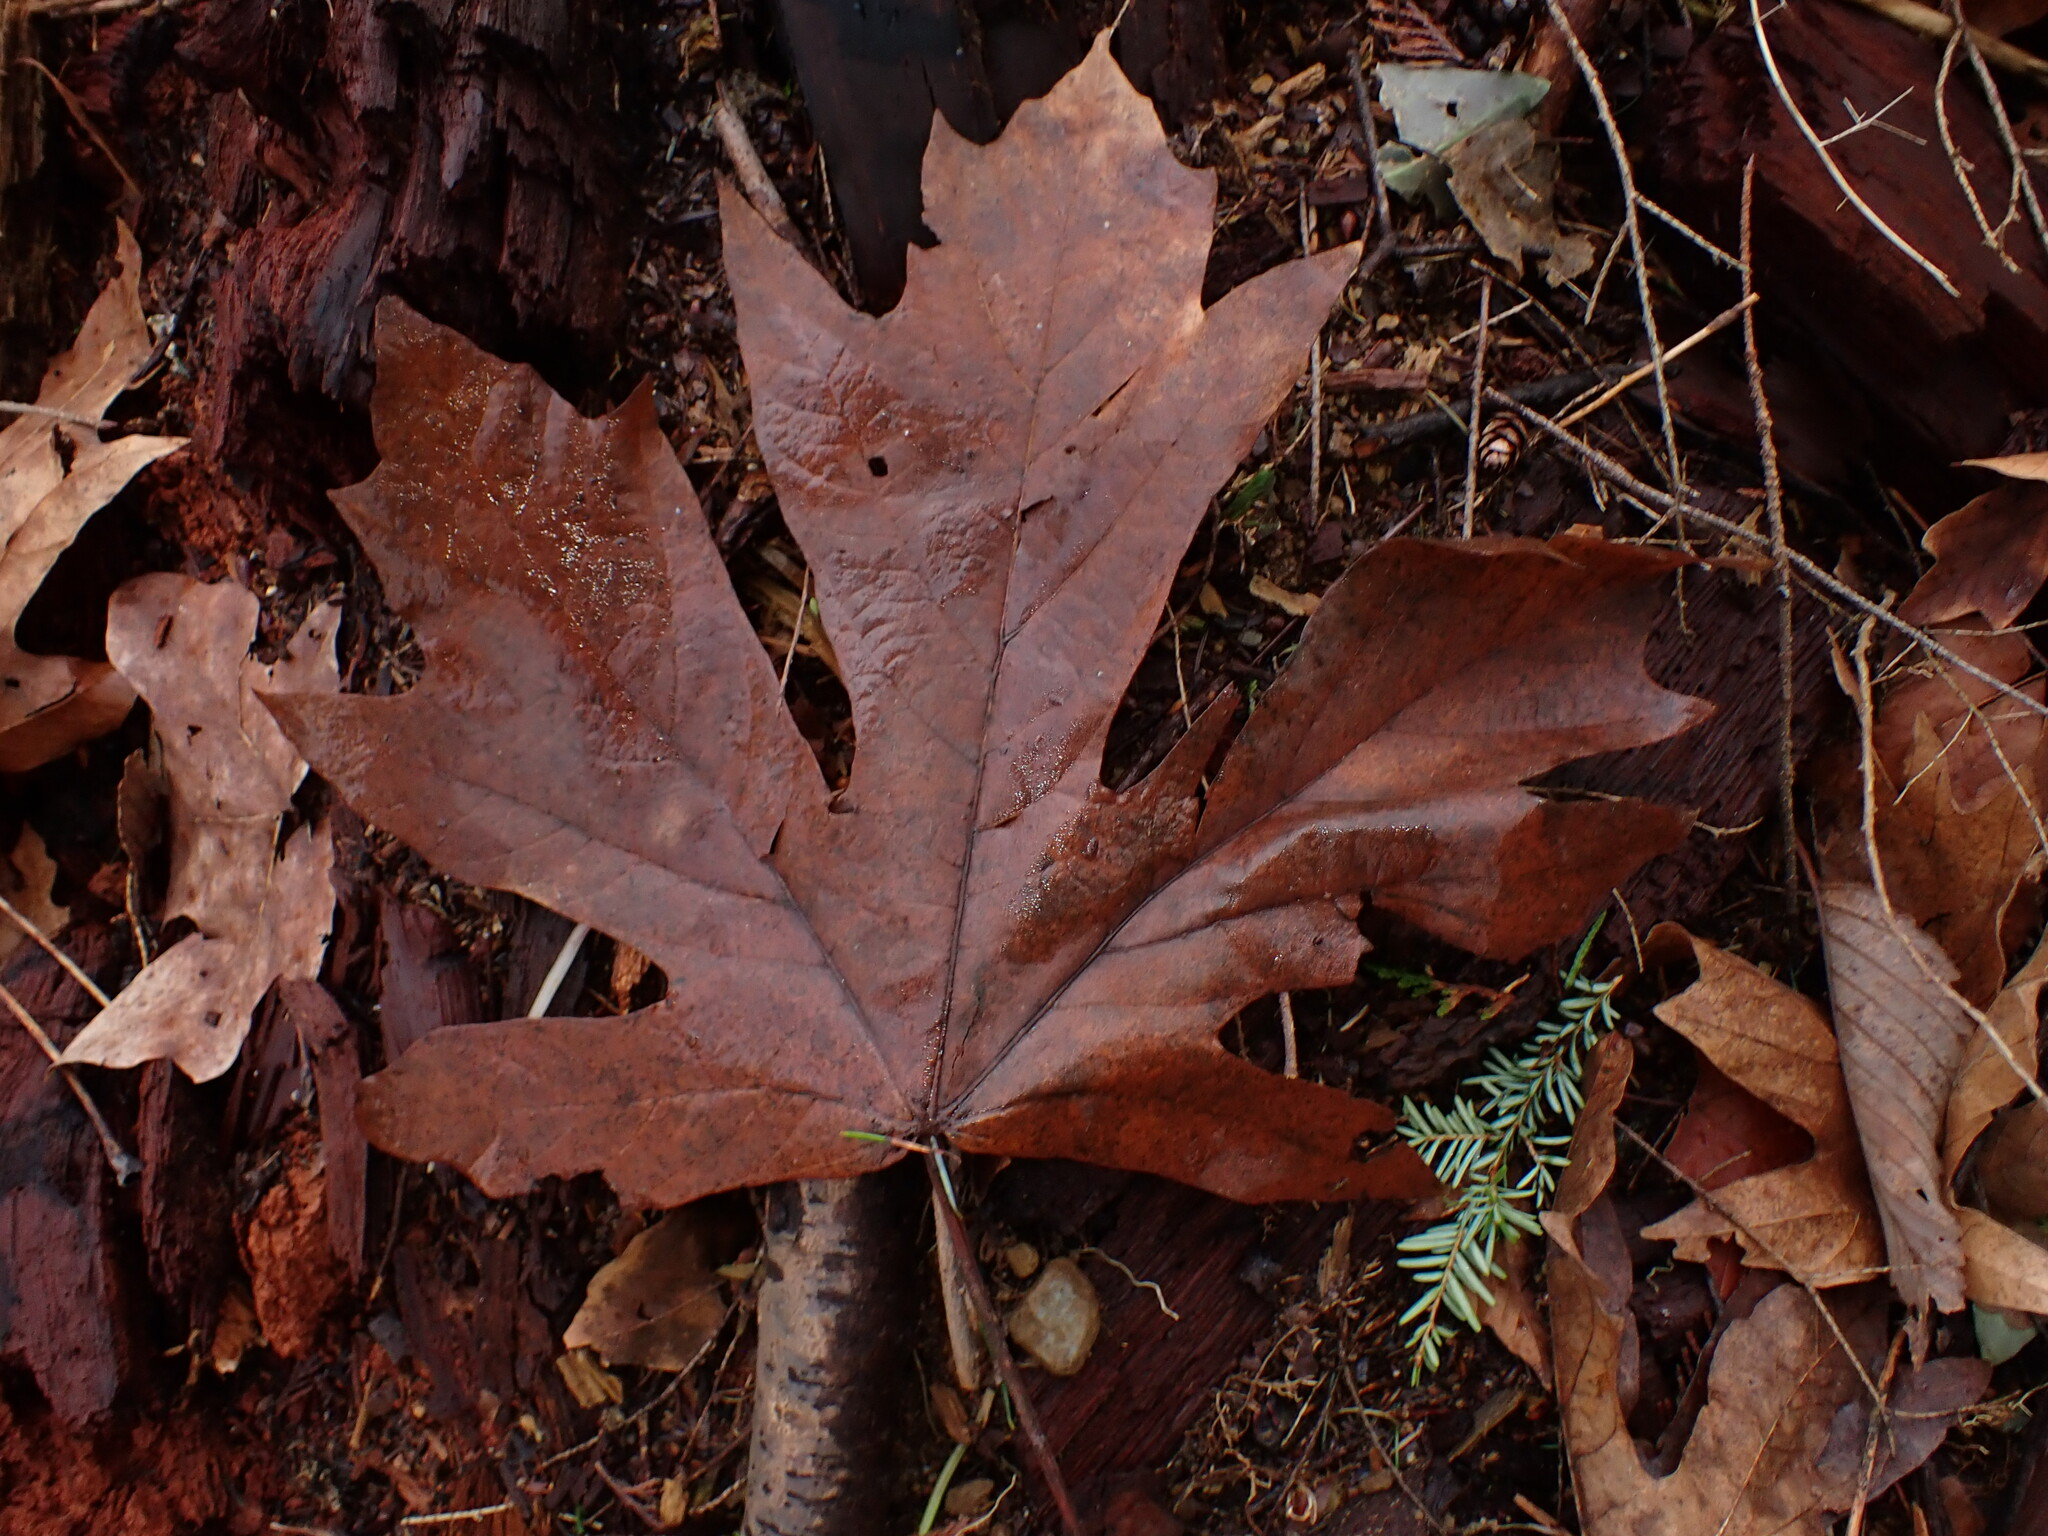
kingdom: Plantae
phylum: Tracheophyta
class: Magnoliopsida
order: Sapindales
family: Sapindaceae
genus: Acer
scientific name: Acer macrophyllum
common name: Oregon maple
